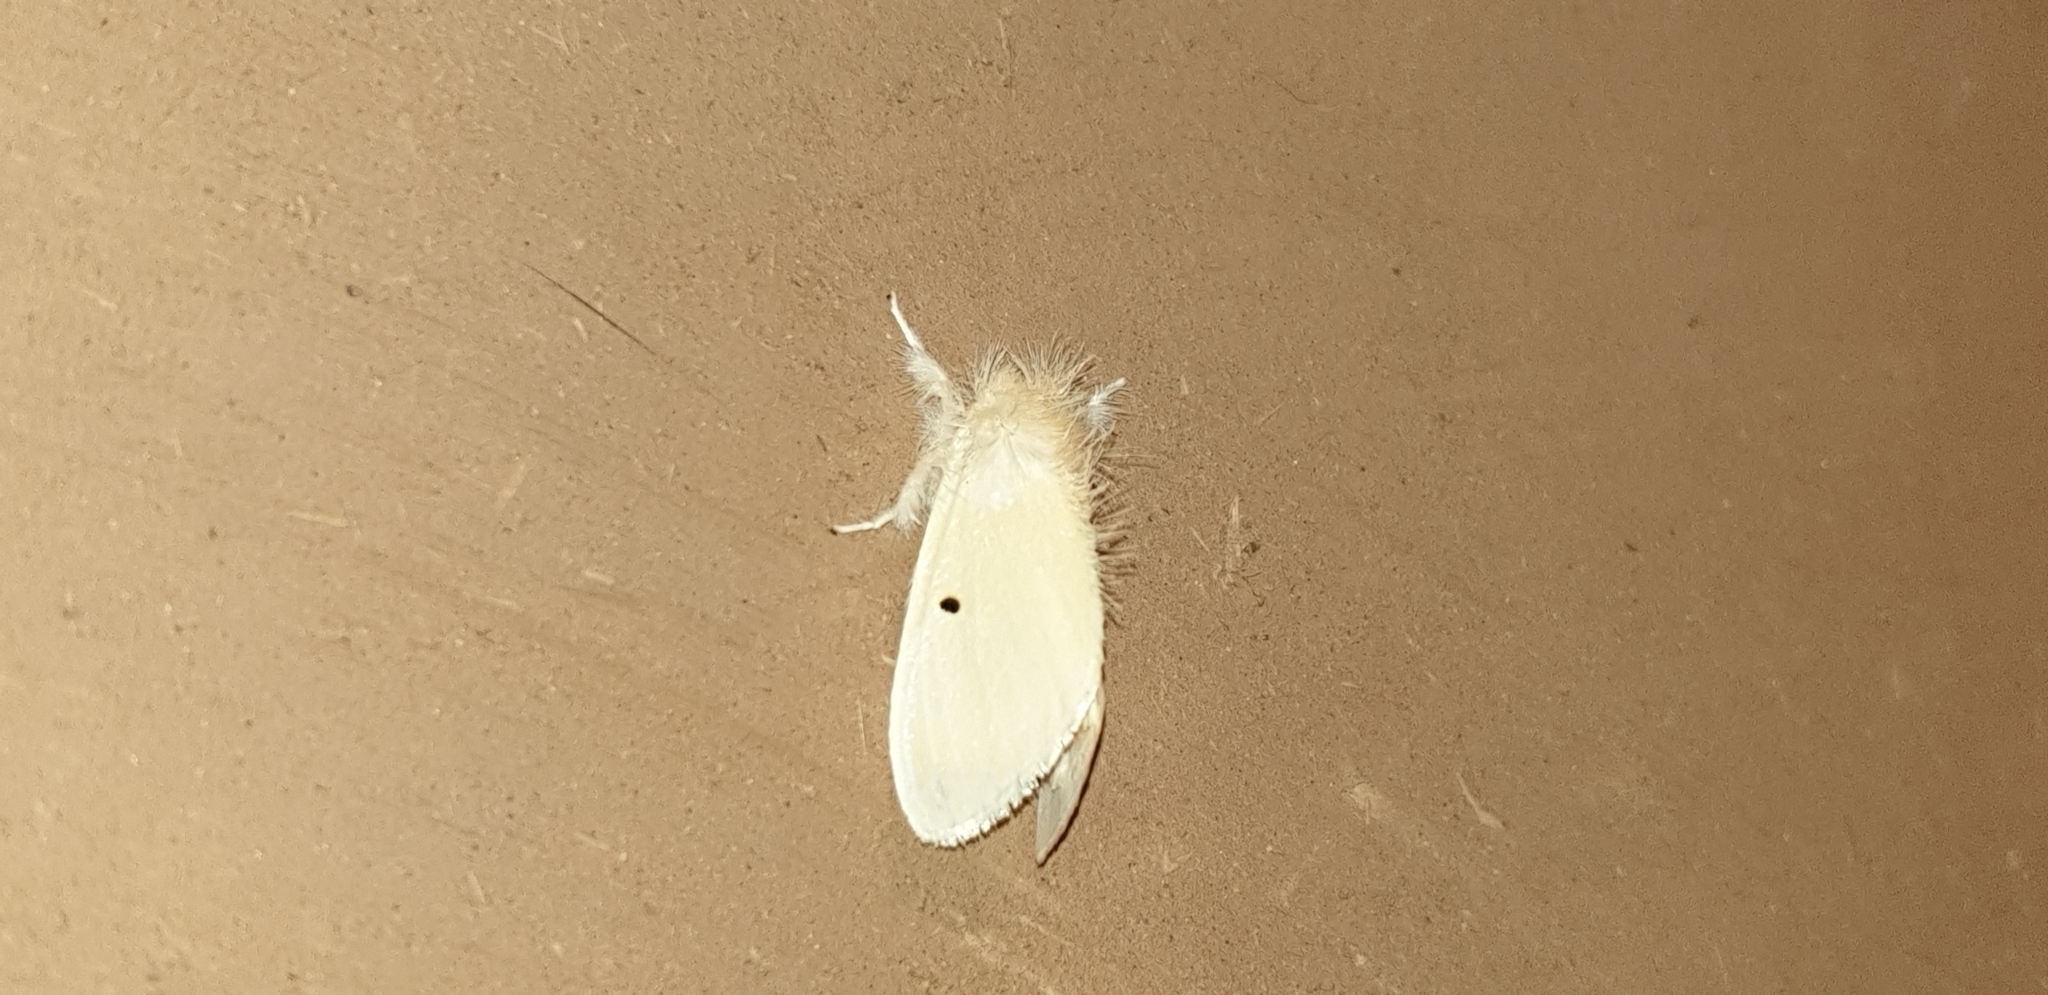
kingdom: Animalia
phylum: Arthropoda
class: Insecta
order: Lepidoptera
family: Erebidae
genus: Sphrageidus
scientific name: Sphrageidus similis
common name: Yellow-tail
